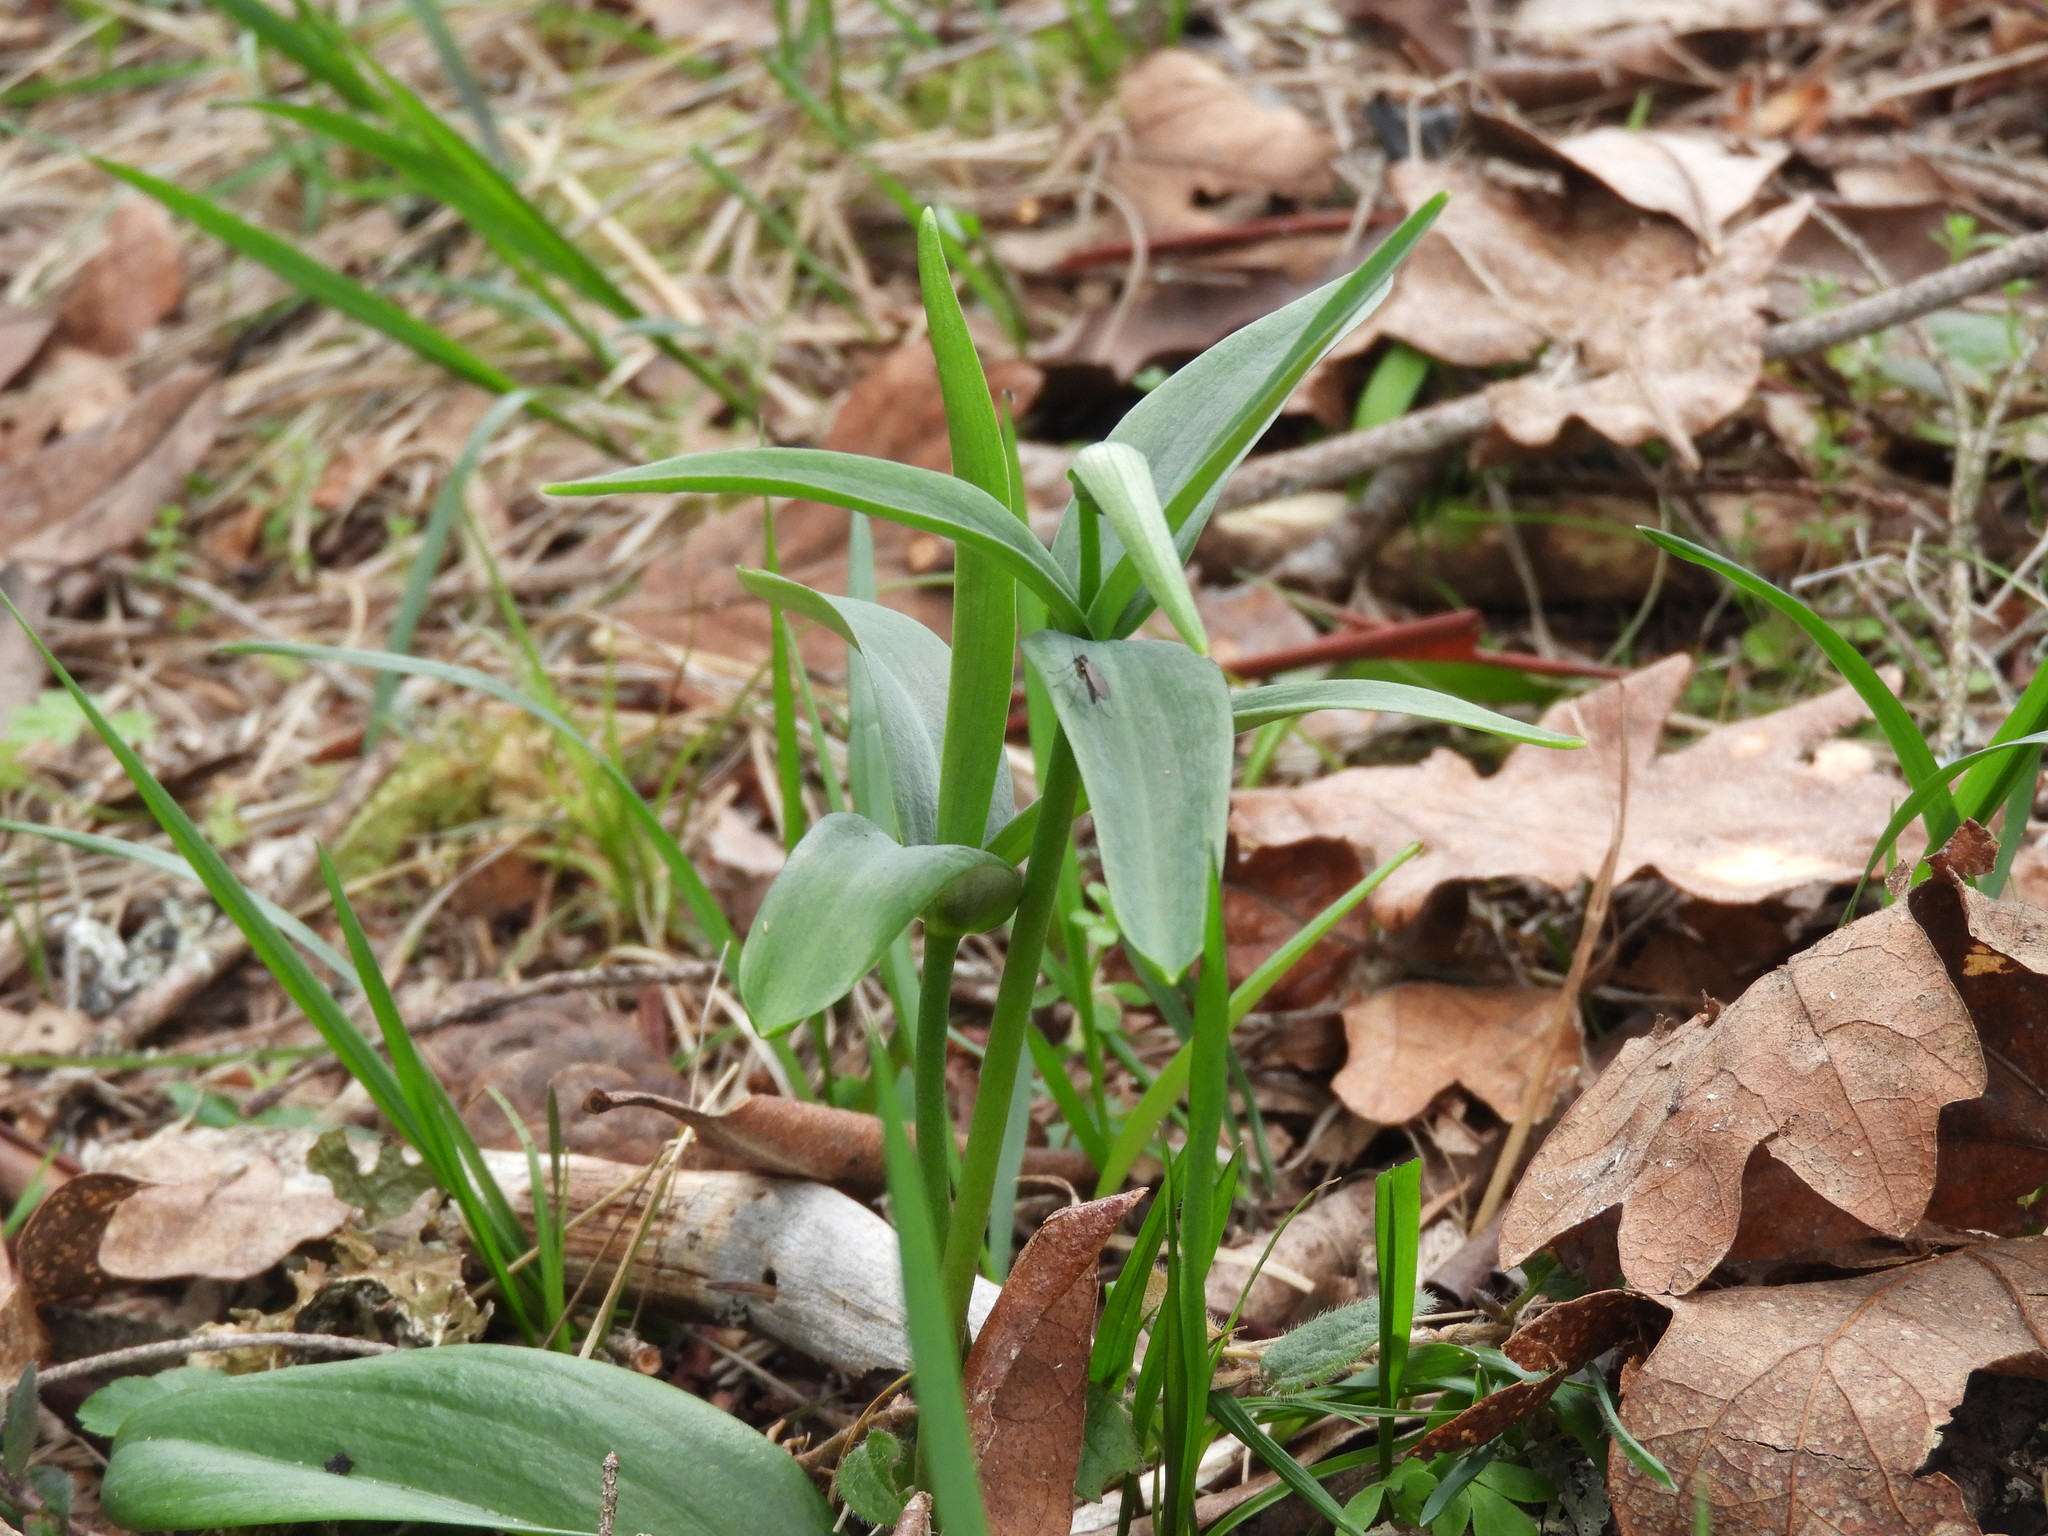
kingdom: Plantae
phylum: Tracheophyta
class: Liliopsida
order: Liliales
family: Liliaceae
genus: Fritillaria
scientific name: Fritillaria affinis
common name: Ojai fritillary
